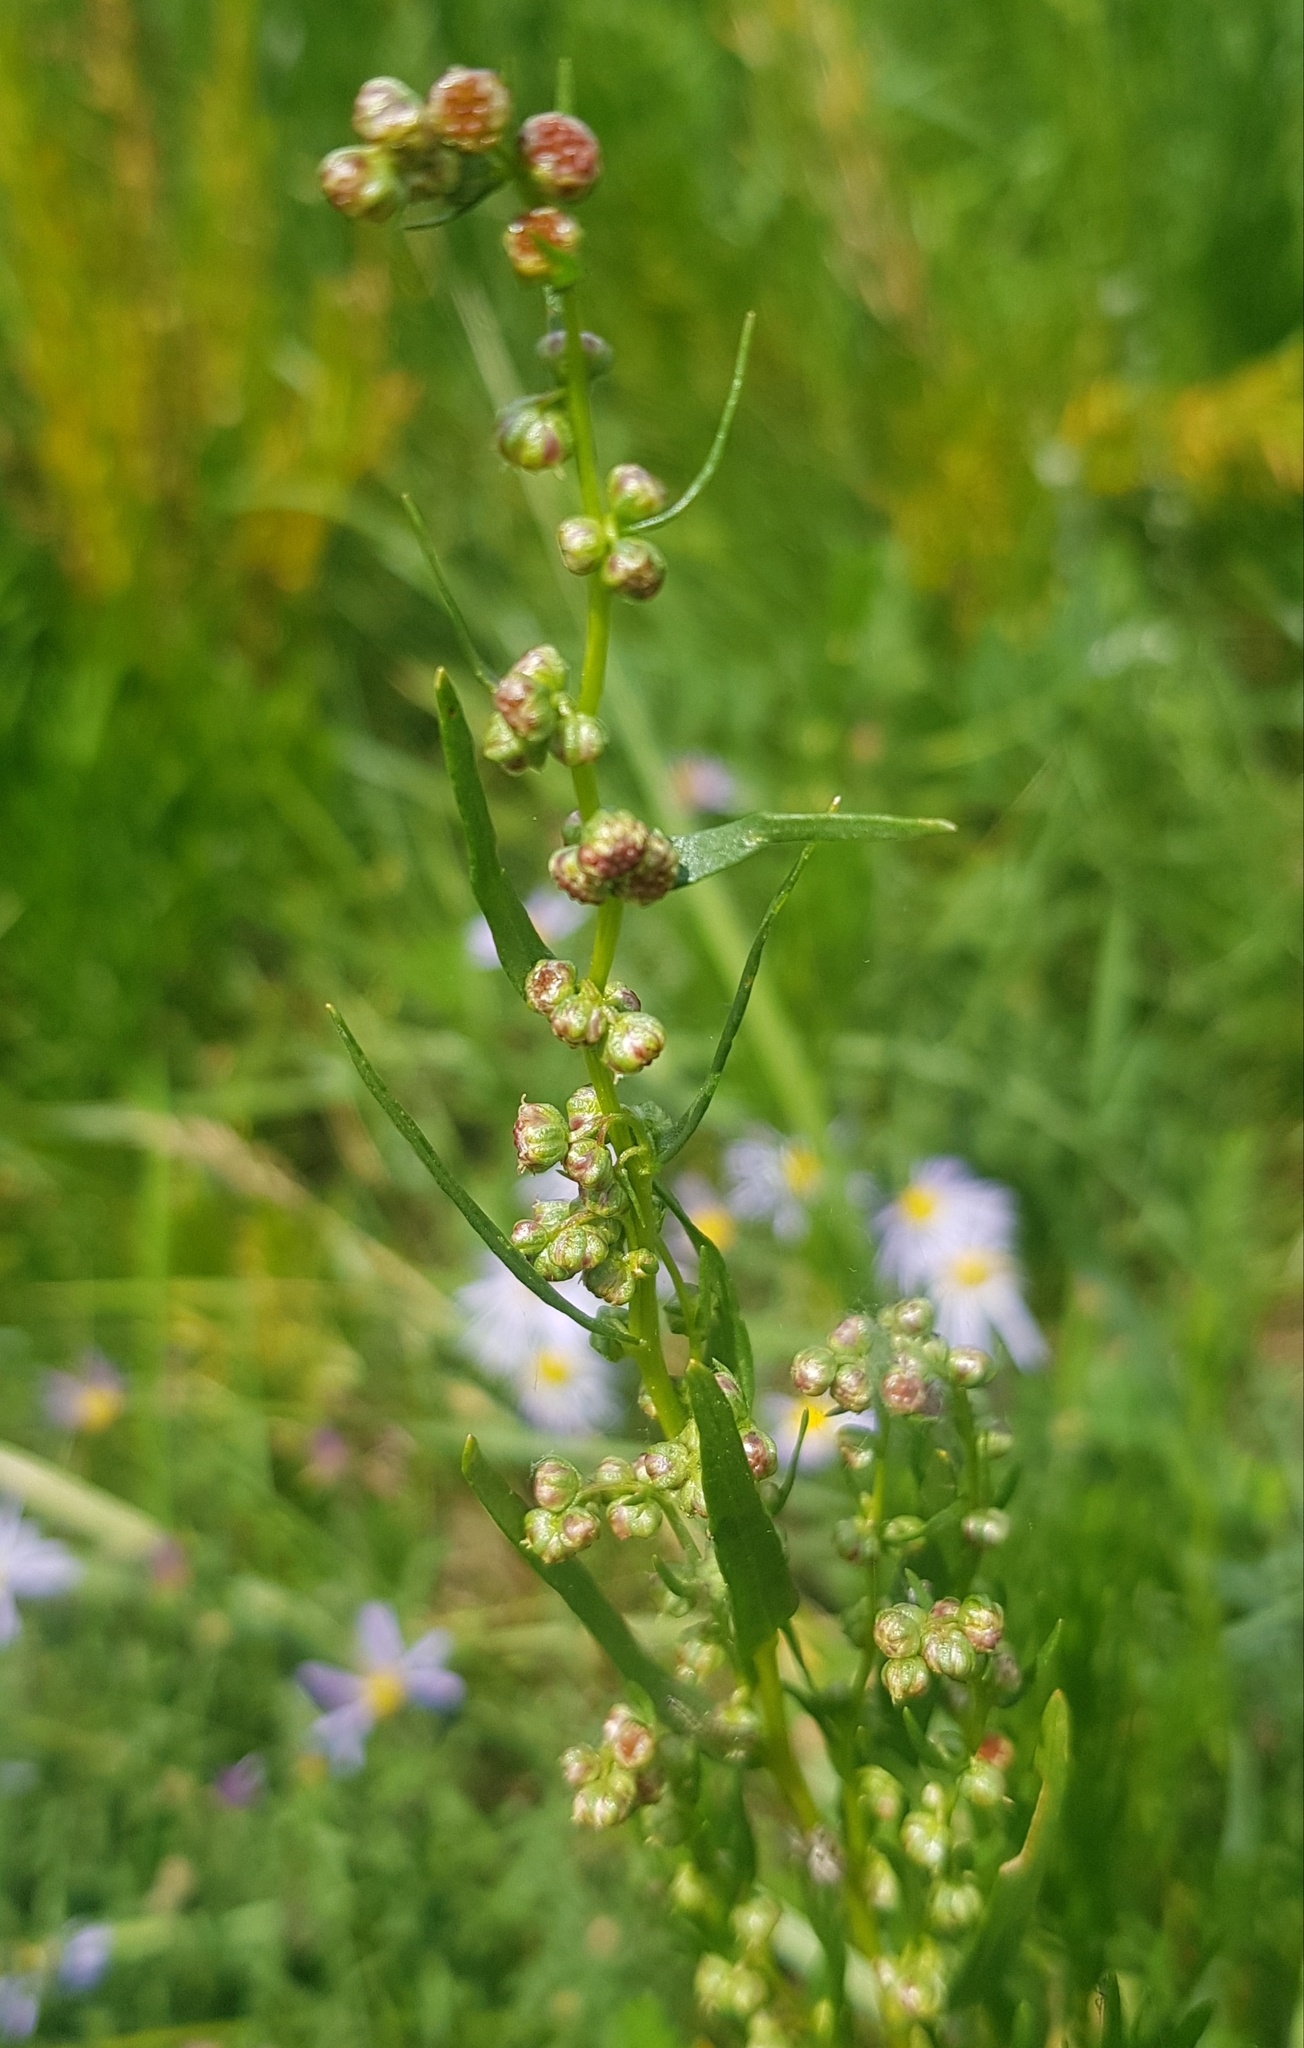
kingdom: Plantae
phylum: Tracheophyta
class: Magnoliopsida
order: Asterales
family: Asteraceae
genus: Artemisia
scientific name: Artemisia dracunculus
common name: Tarragon
